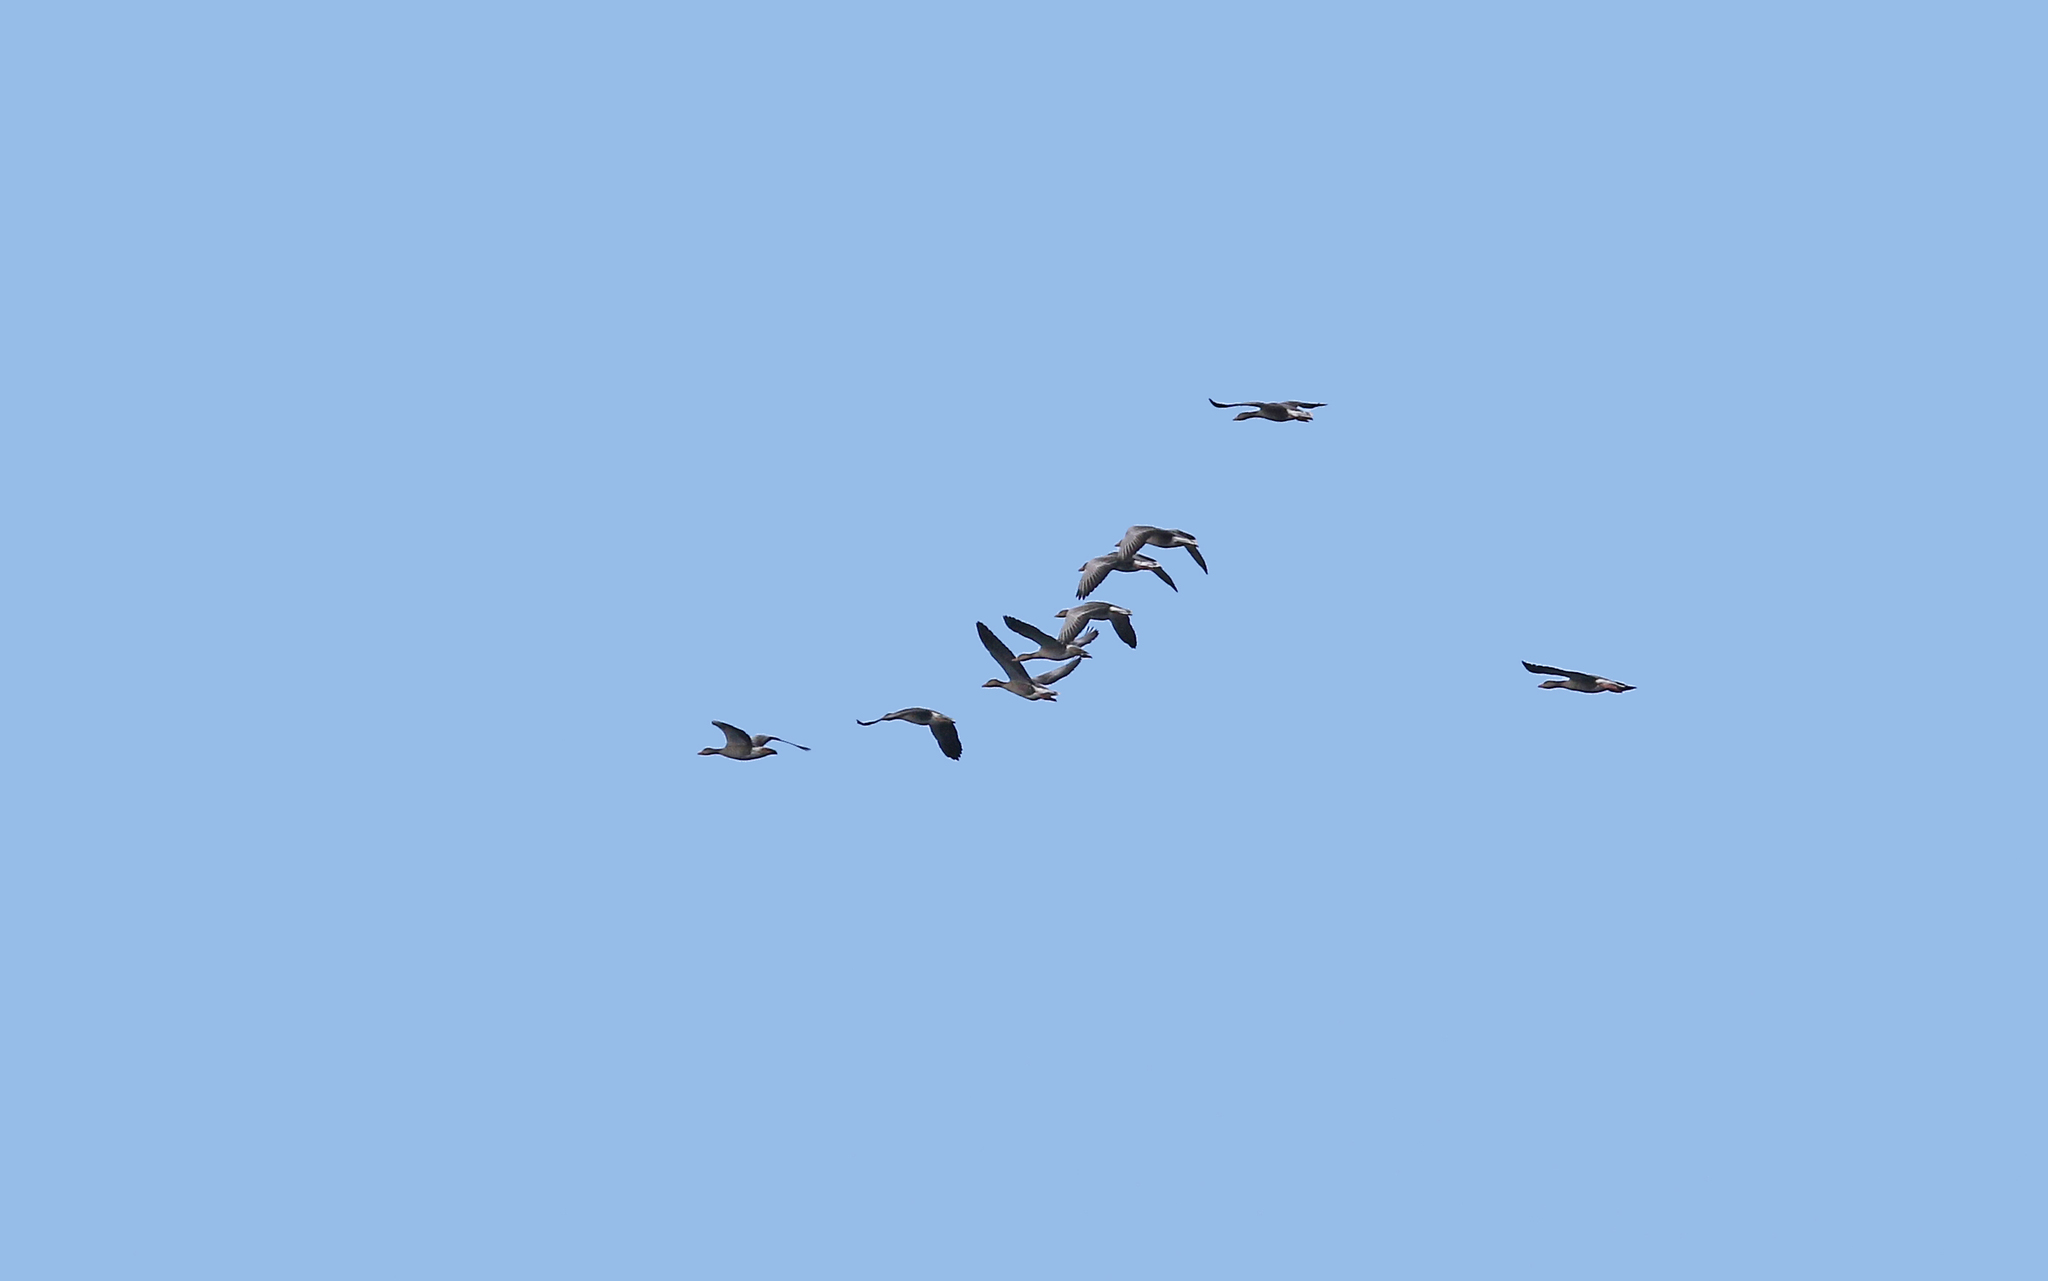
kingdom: Animalia
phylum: Chordata
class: Aves
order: Anseriformes
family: Anatidae
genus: Anser
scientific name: Anser anser
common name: Greylag goose
